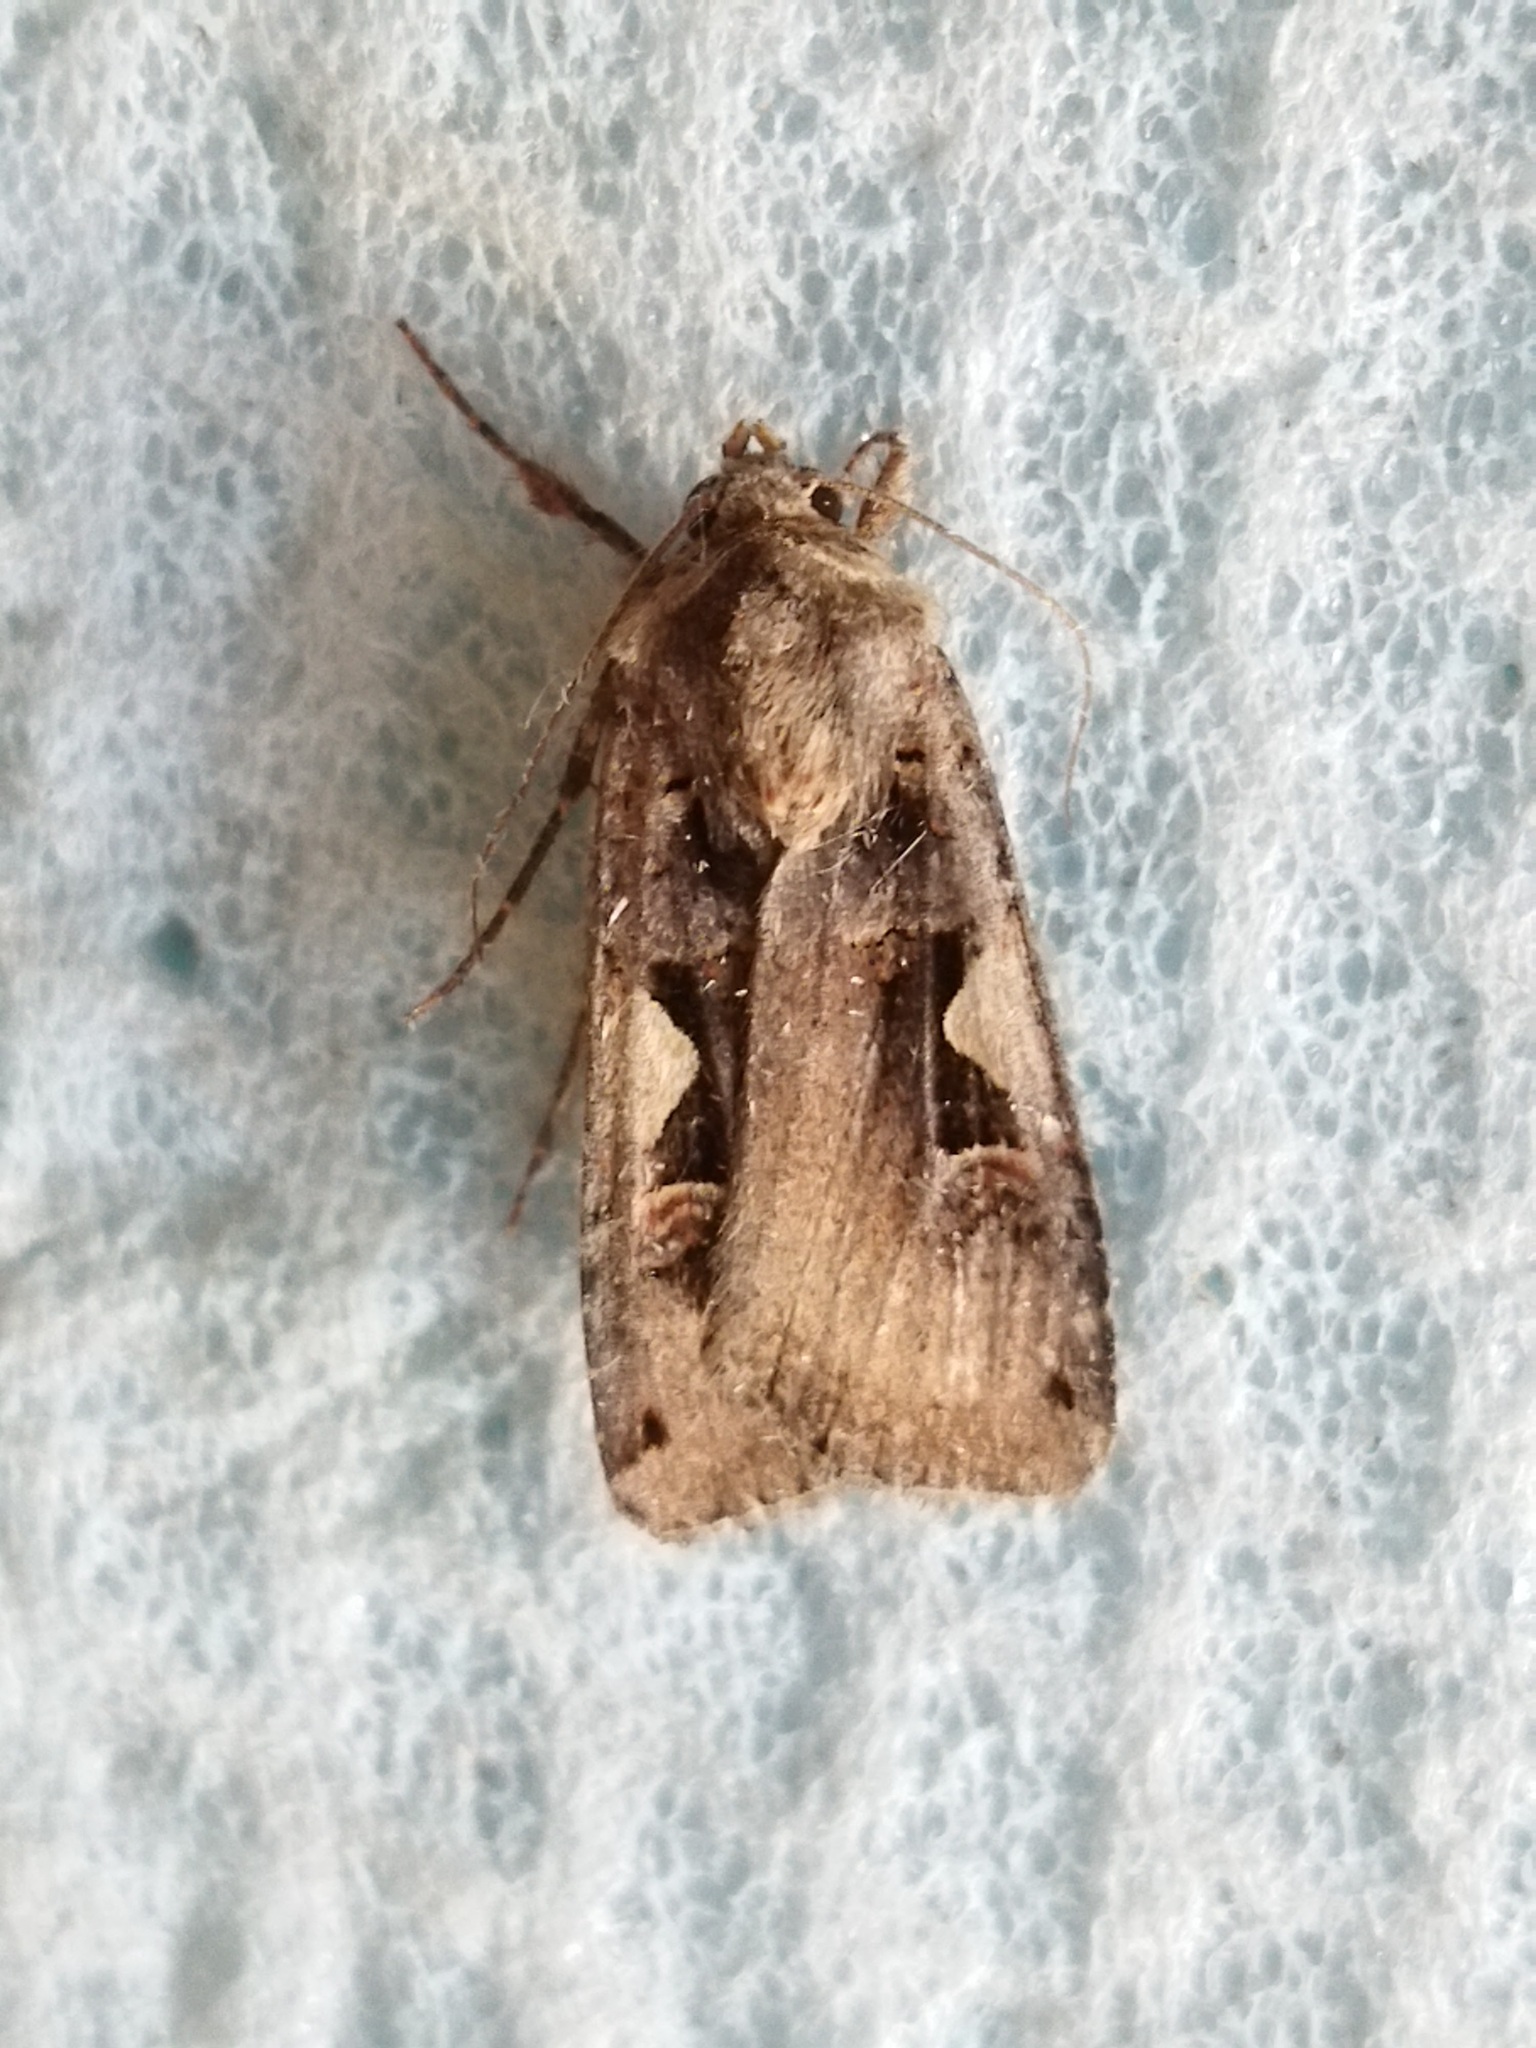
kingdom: Animalia
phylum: Arthropoda
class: Insecta
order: Lepidoptera
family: Noctuidae
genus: Xestia
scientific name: Xestia c-nigrum
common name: Setaceous hebrew character
